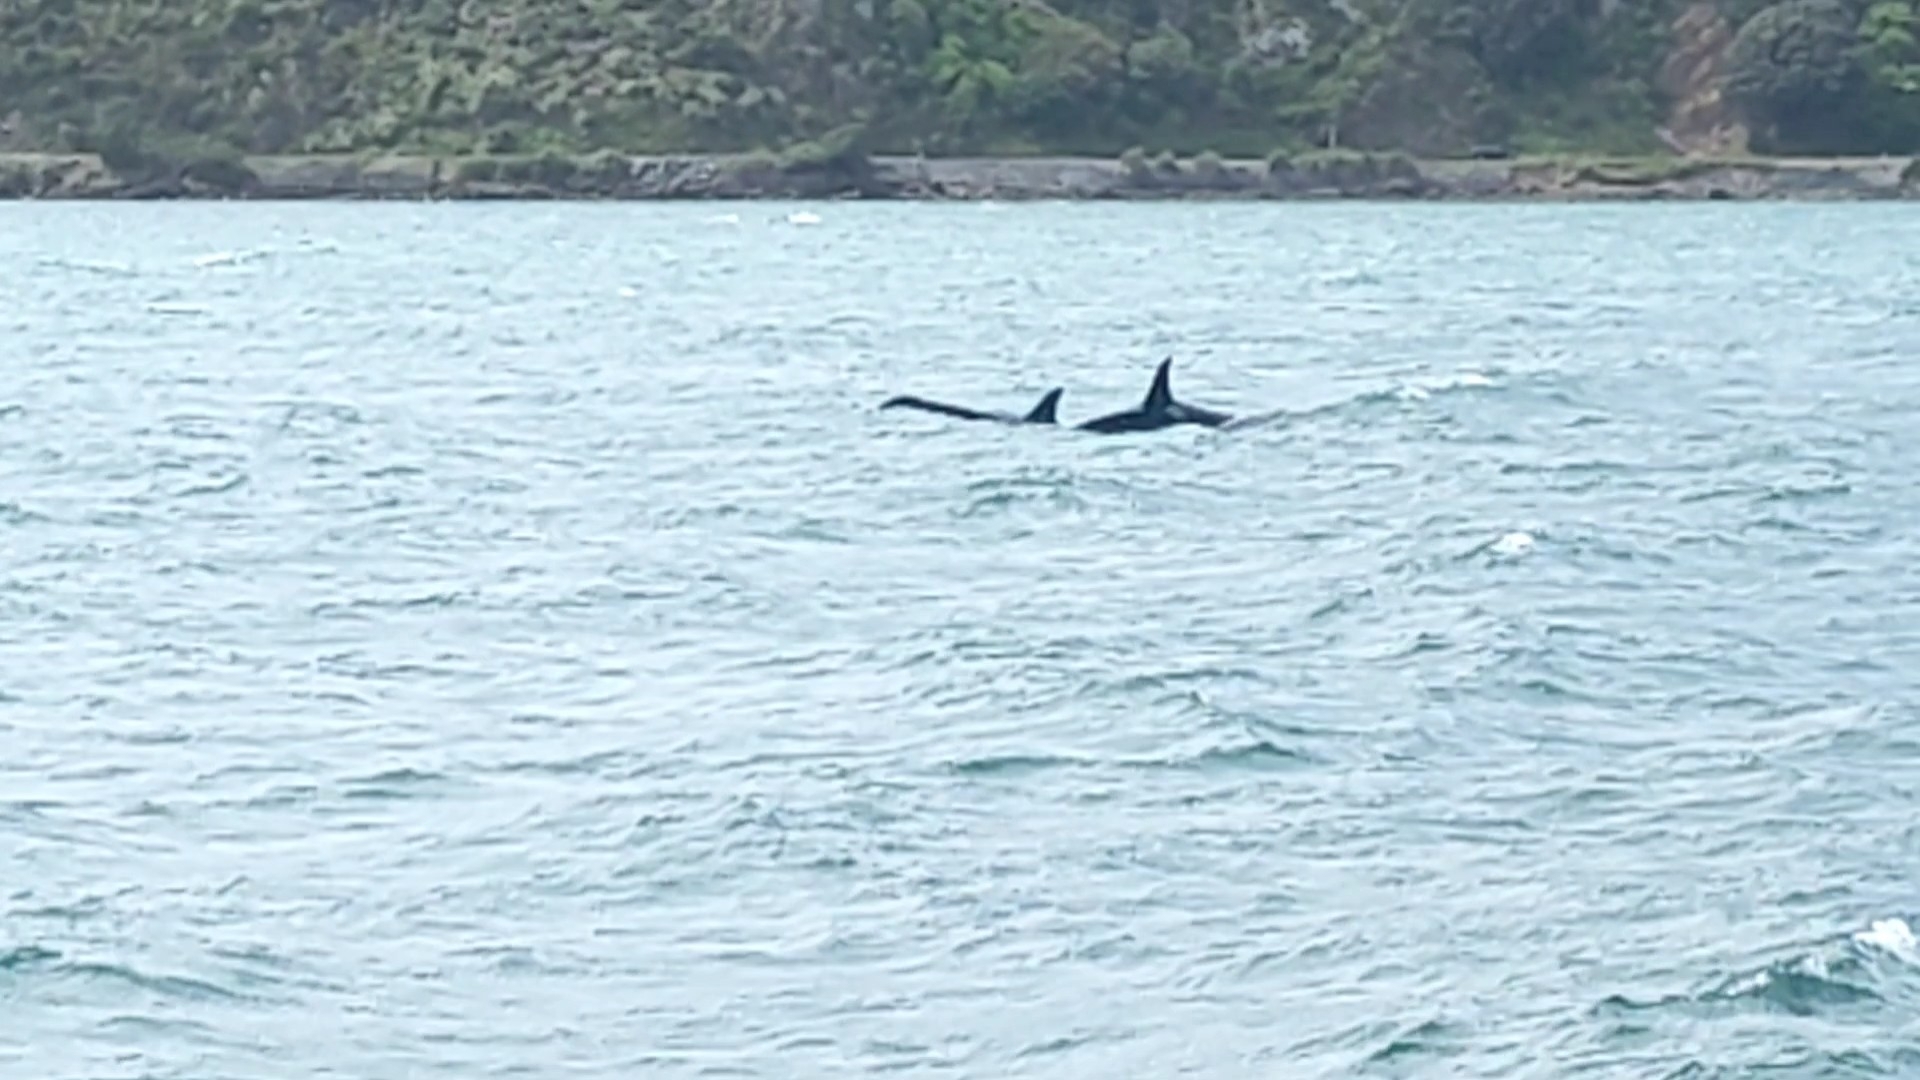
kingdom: Animalia
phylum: Chordata
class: Mammalia
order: Cetacea
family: Delphinidae
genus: Orcinus
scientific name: Orcinus orca
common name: Killer whale
